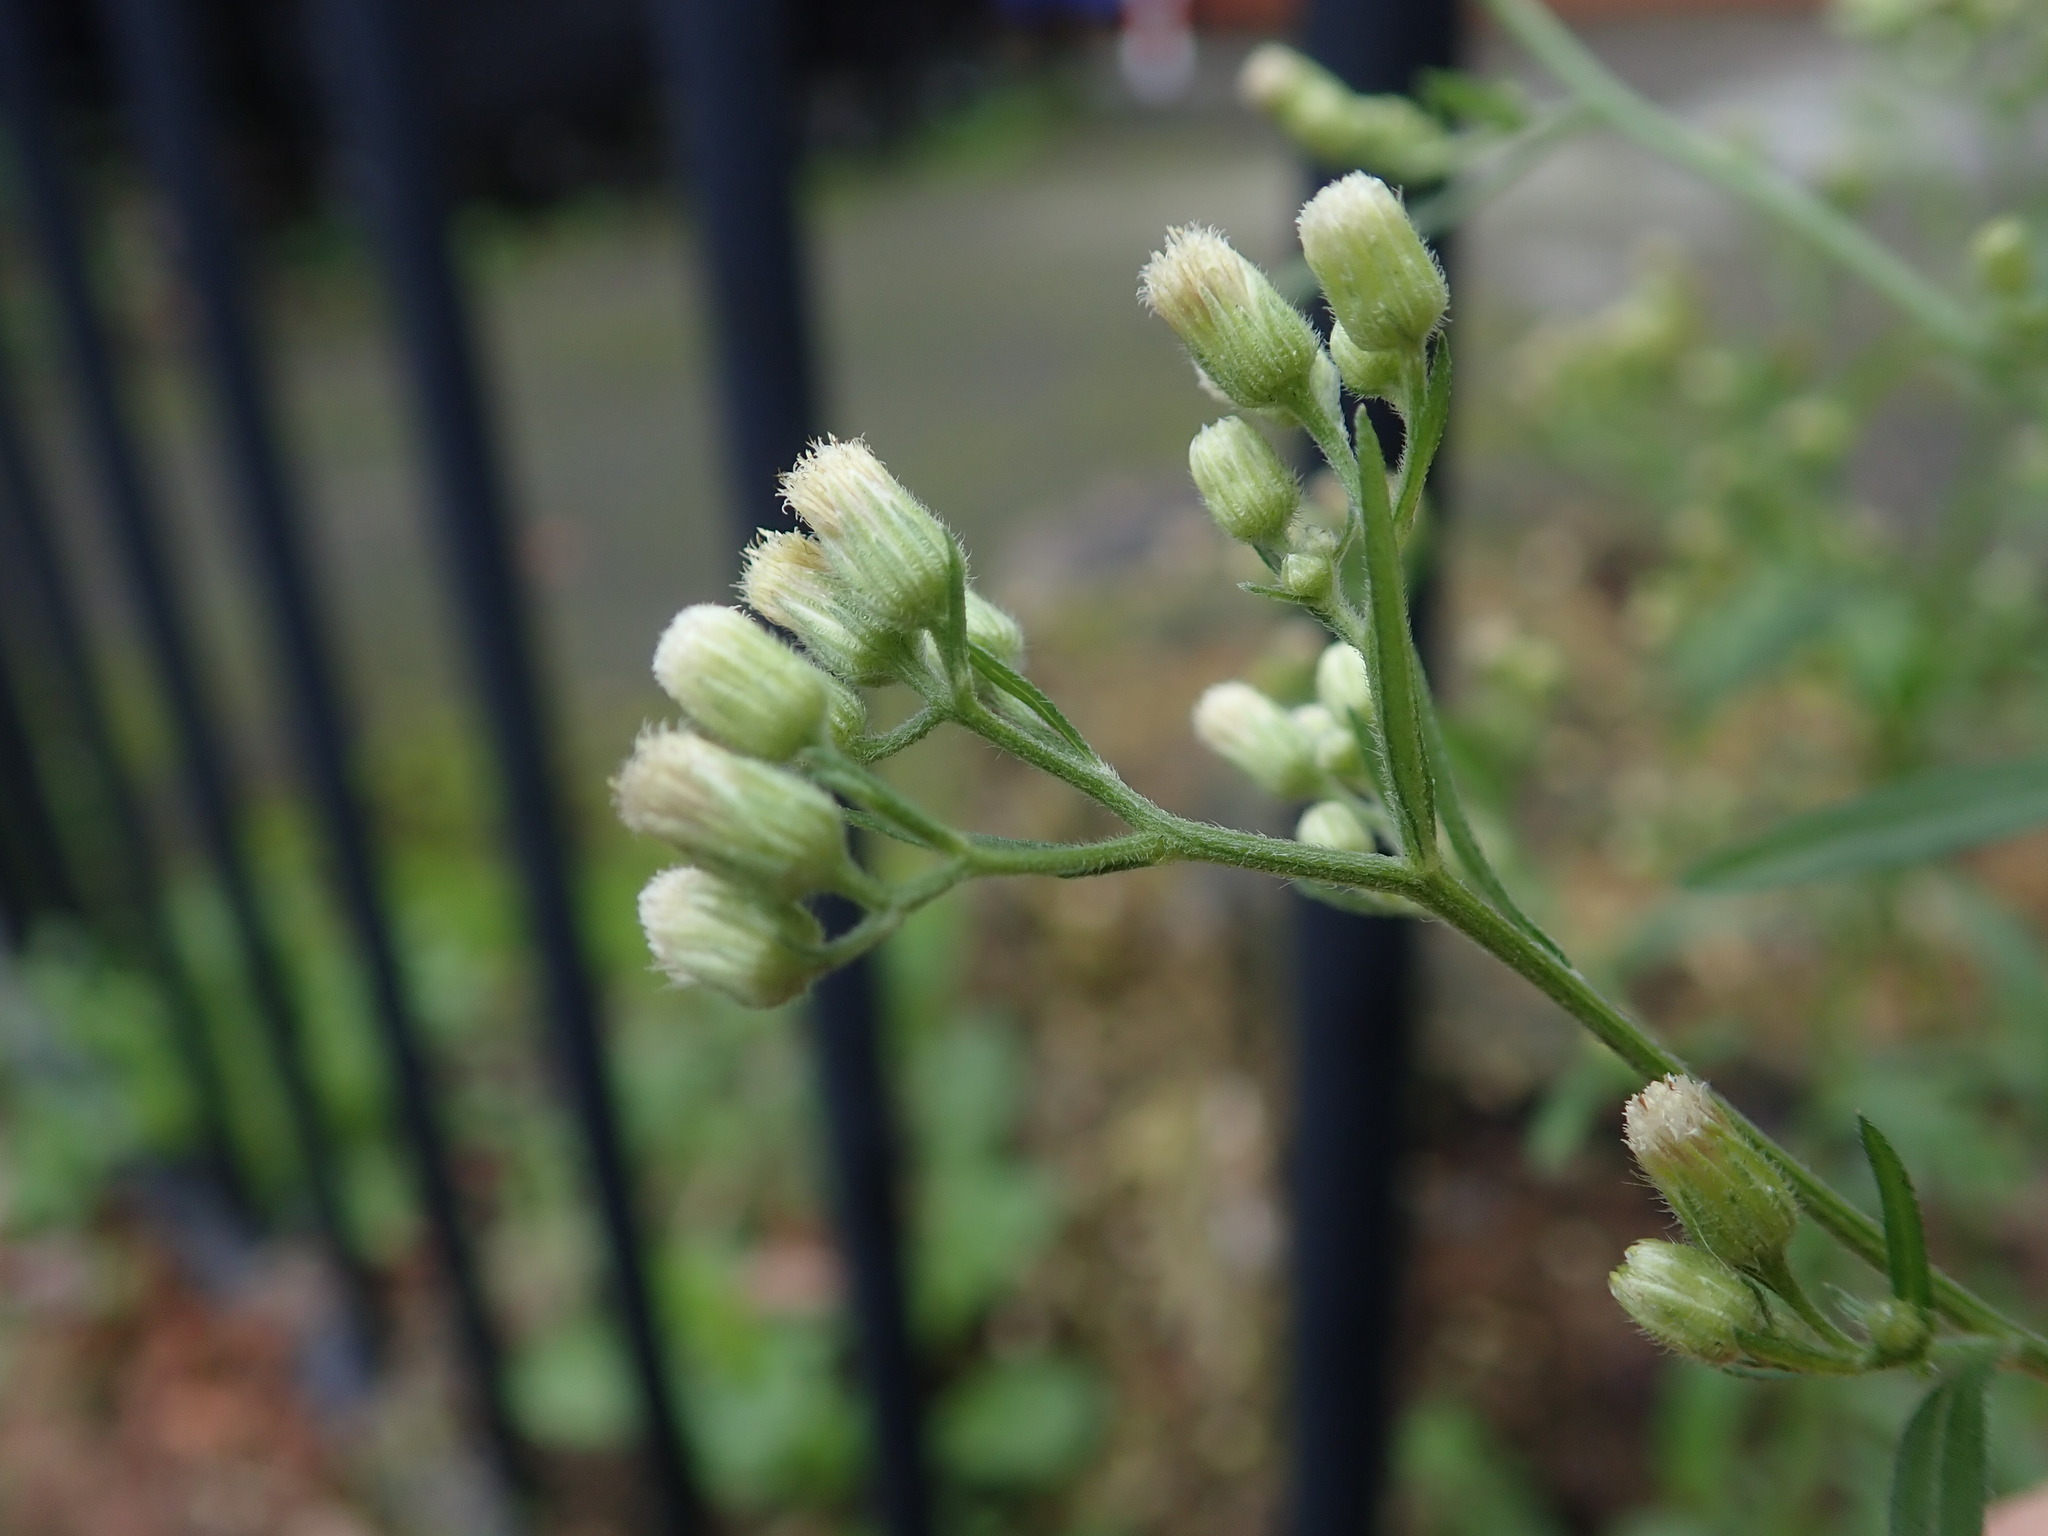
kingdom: Plantae
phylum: Tracheophyta
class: Magnoliopsida
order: Asterales
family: Asteraceae
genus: Erigeron
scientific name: Erigeron sumatrensis
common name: Daisy
